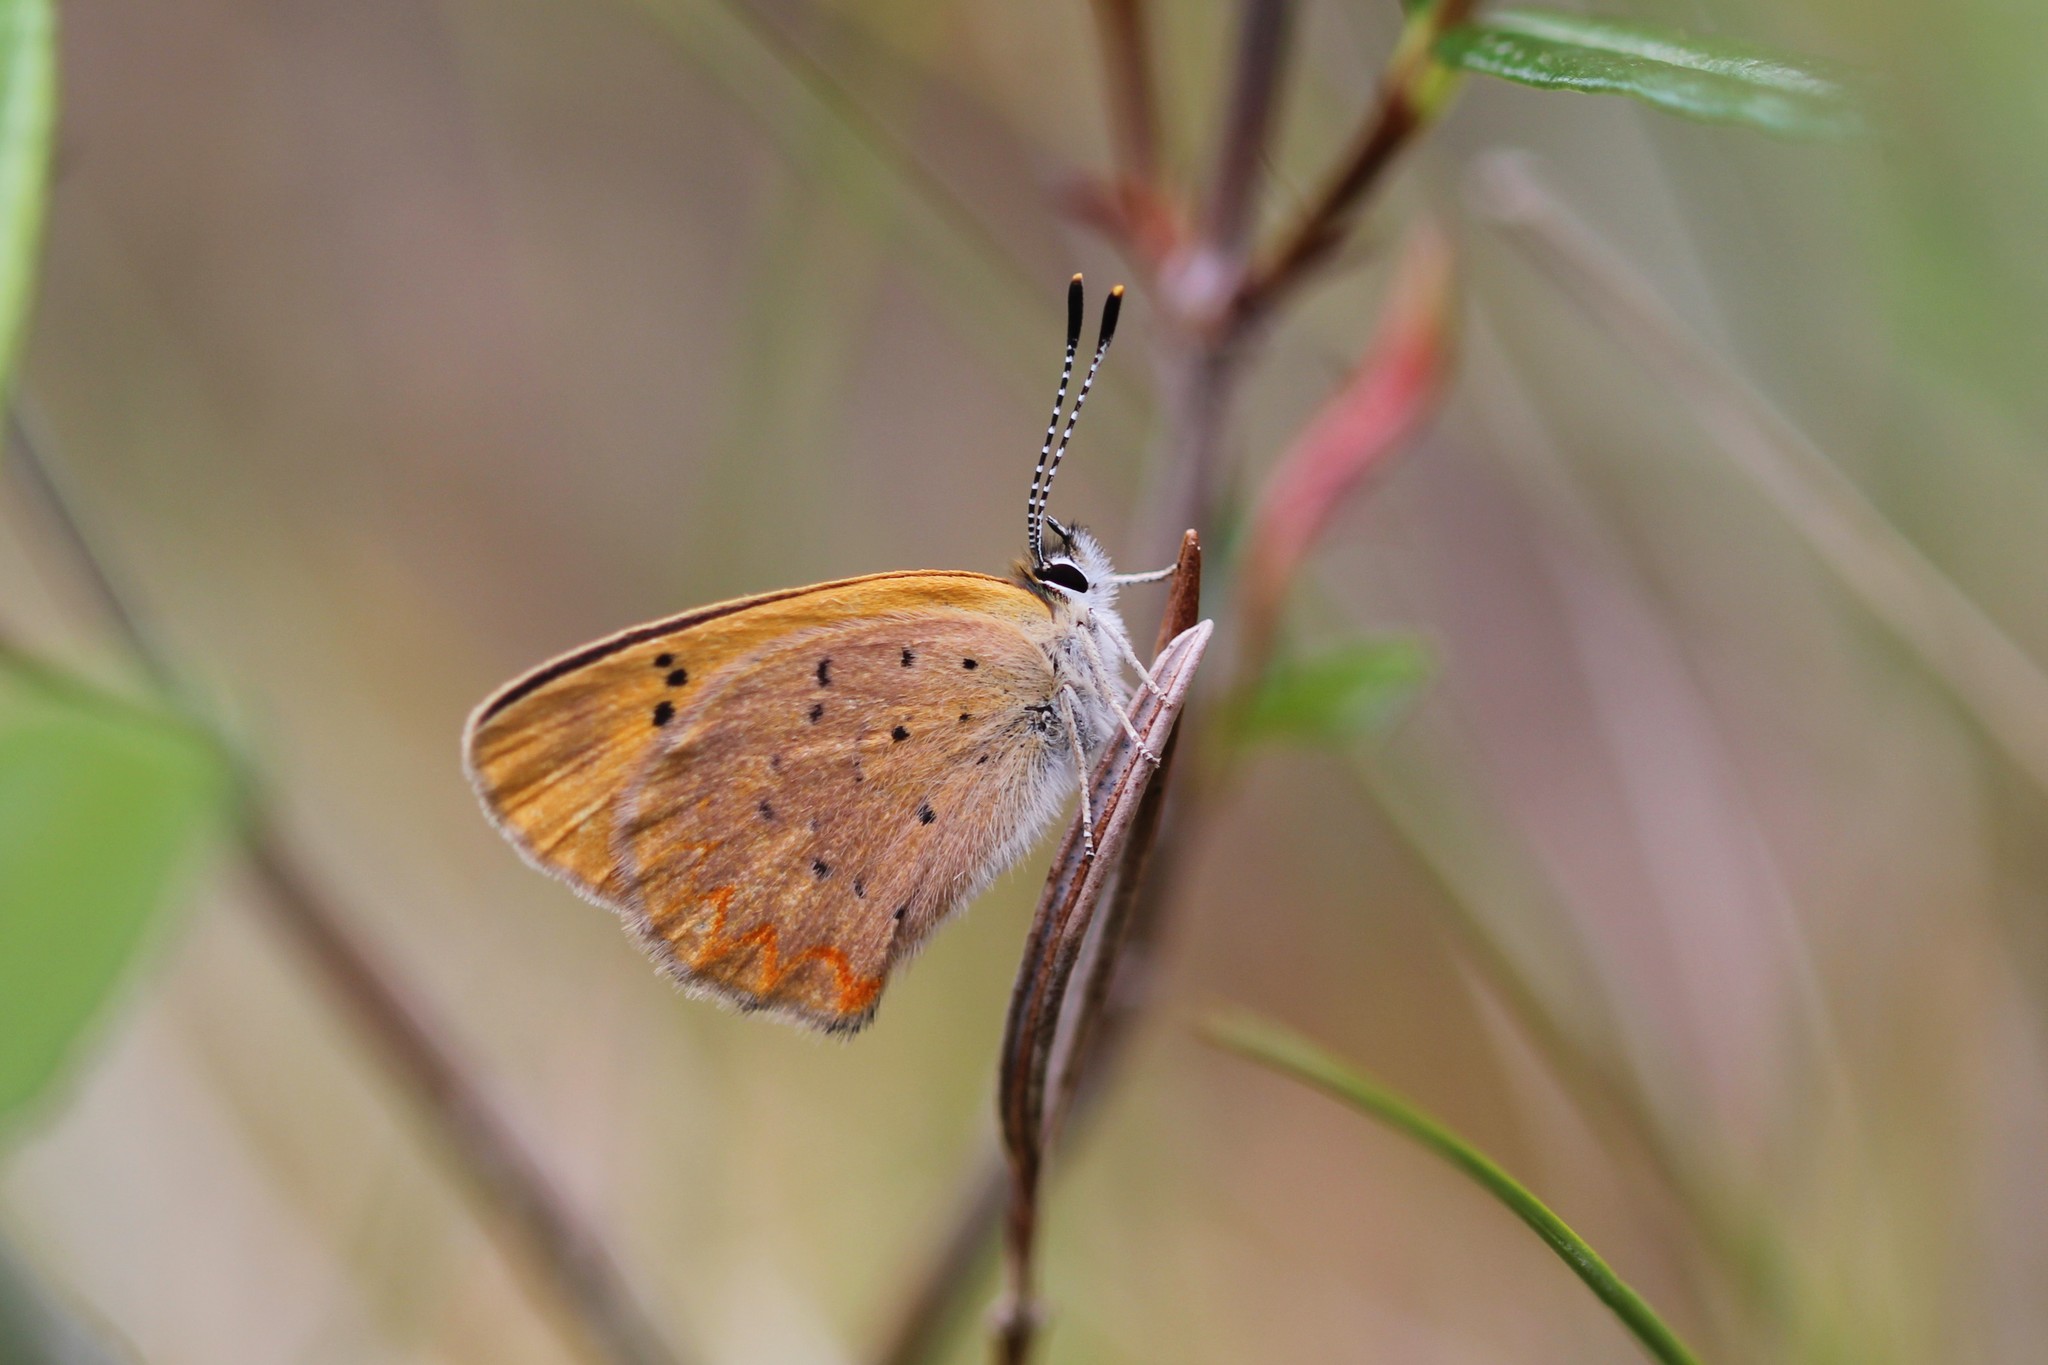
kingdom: Animalia
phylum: Arthropoda
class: Insecta
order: Lepidoptera
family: Lycaenidae
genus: Tharsalea
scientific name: Tharsalea dorcas
